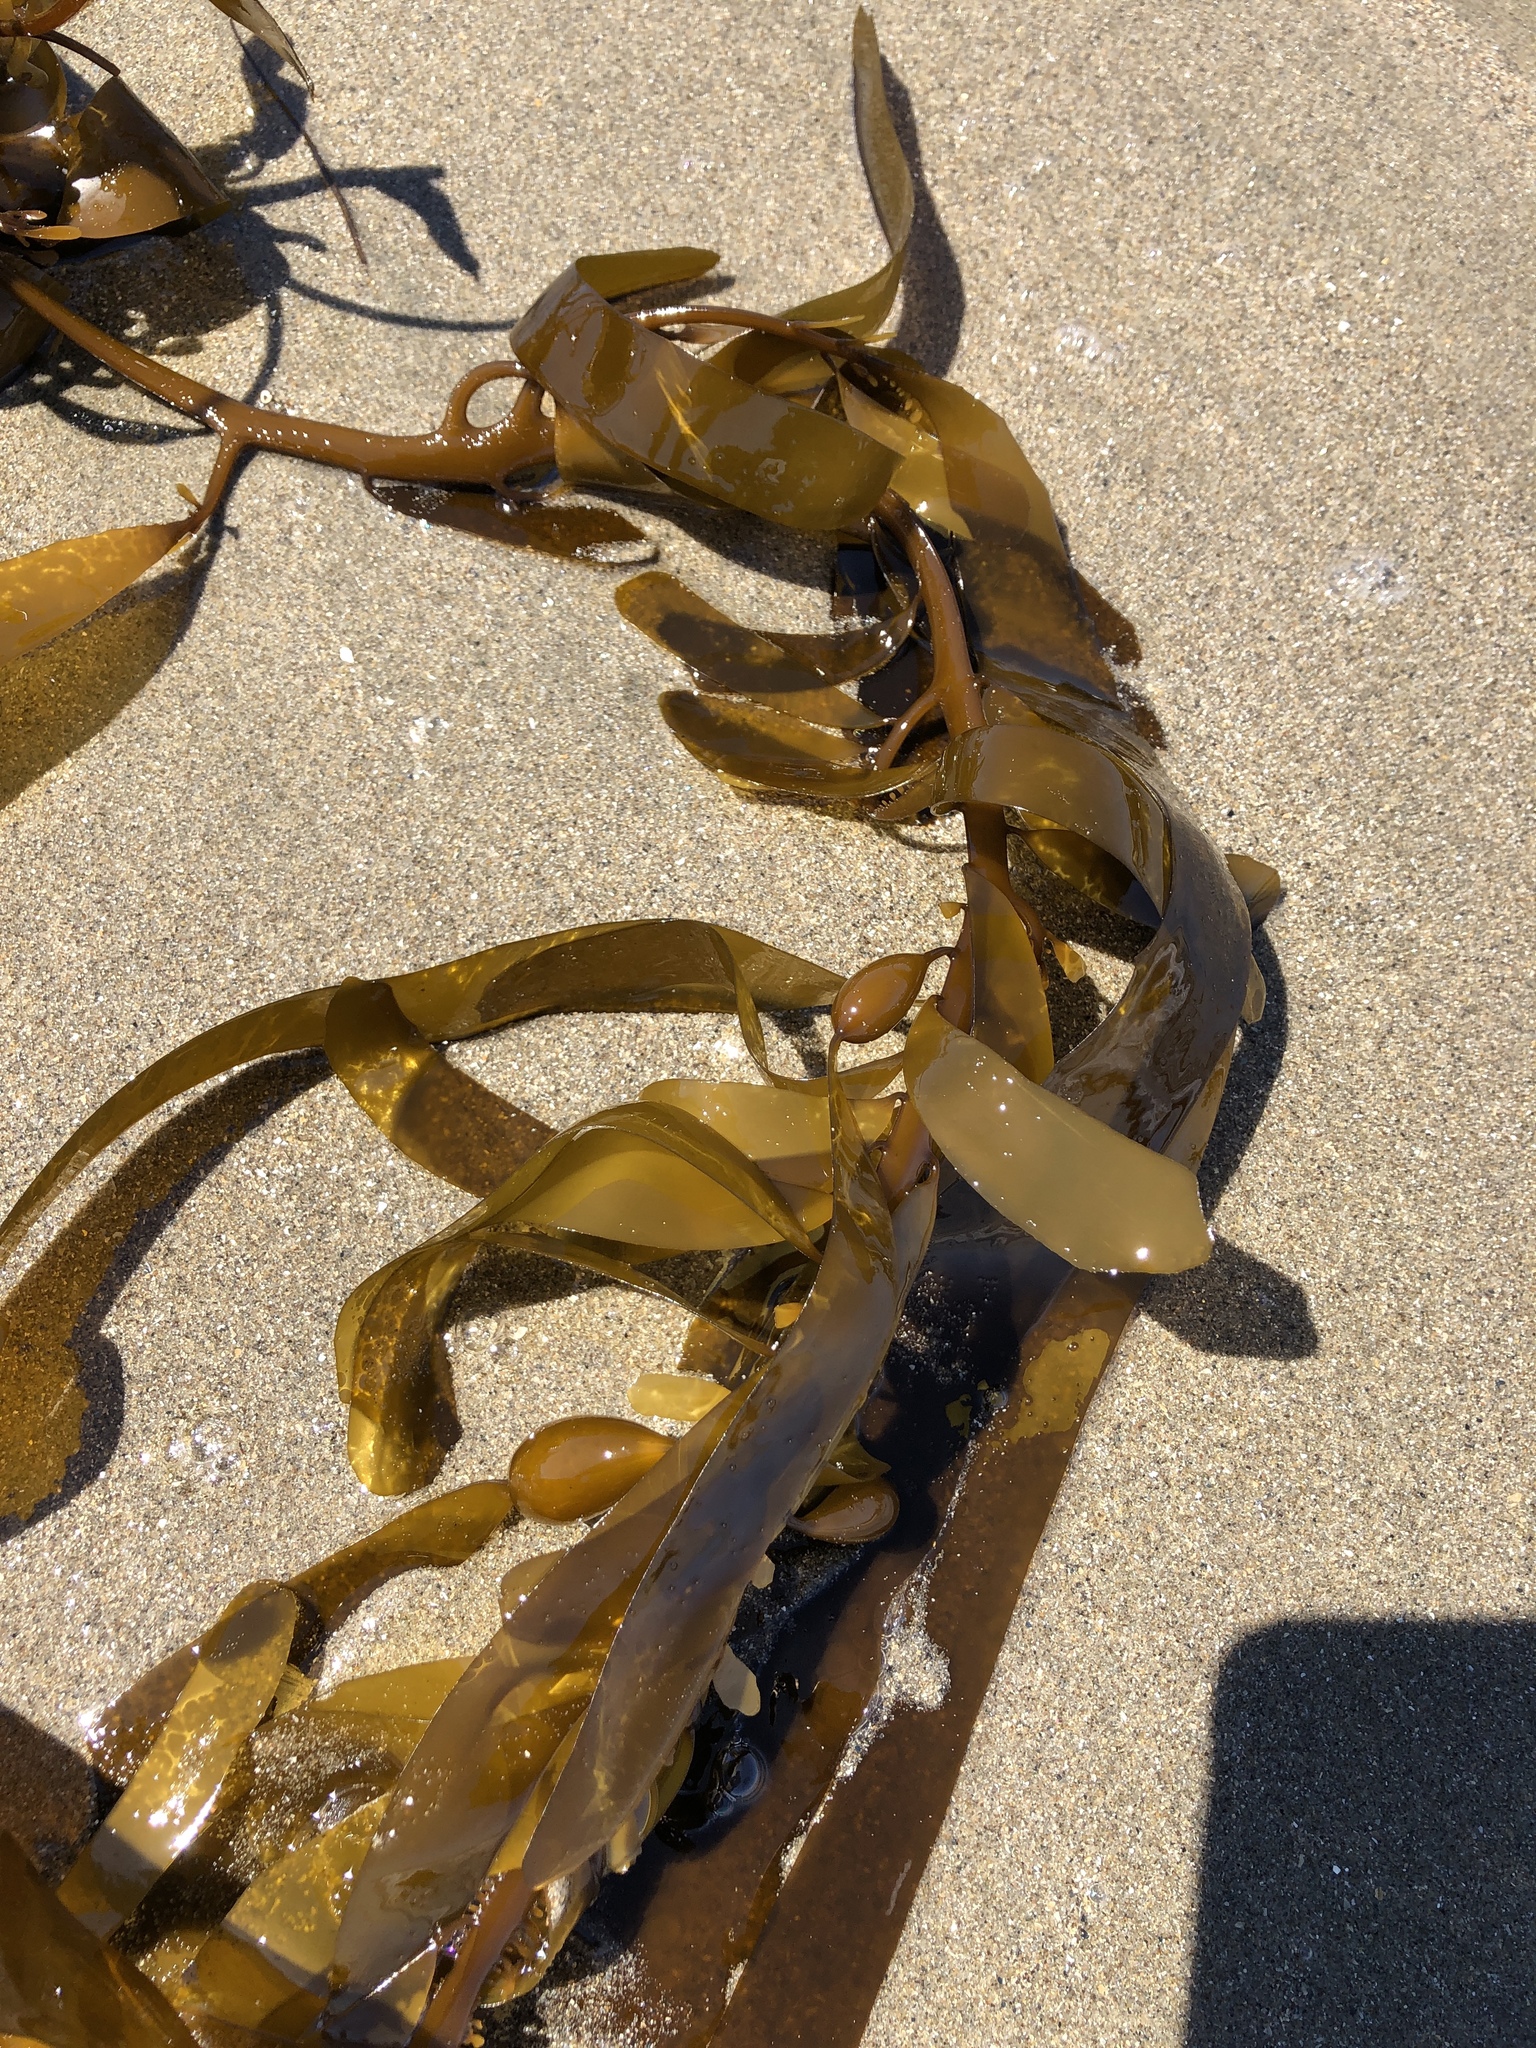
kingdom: Chromista
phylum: Ochrophyta
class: Phaeophyceae
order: Laminariales
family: Lessoniaceae
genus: Egregia
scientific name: Egregia menziesii
